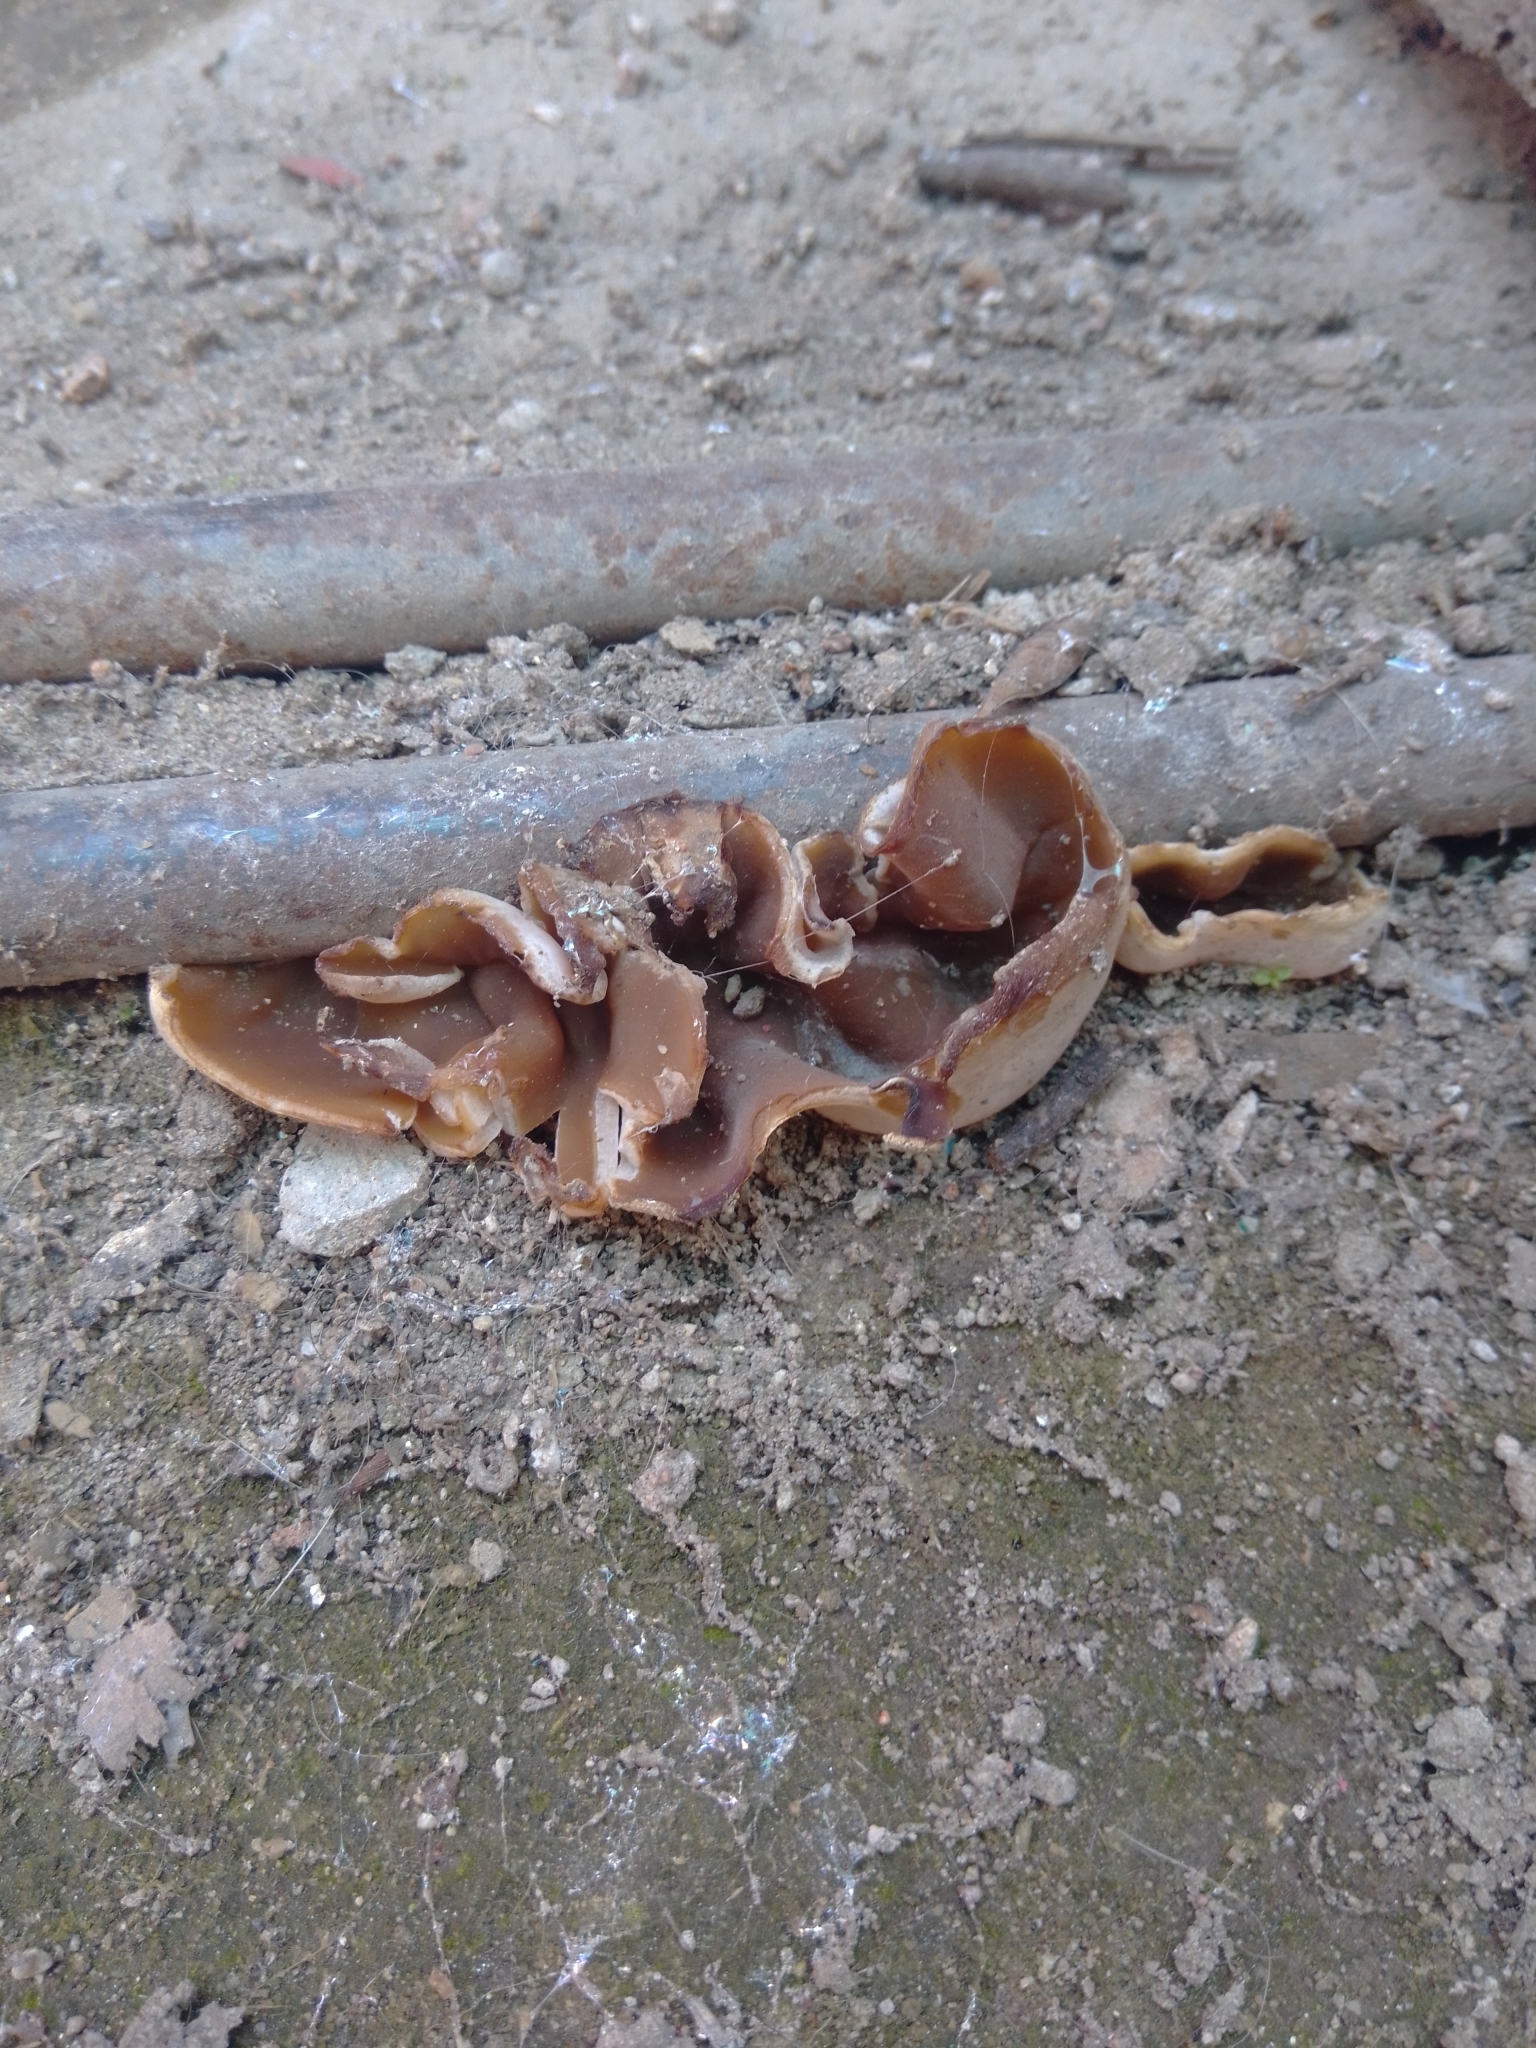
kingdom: Fungi
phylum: Ascomycota
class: Pezizomycetes
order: Pezizales
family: Pezizaceae
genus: Peziza
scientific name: Peziza varia
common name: Layered cup
